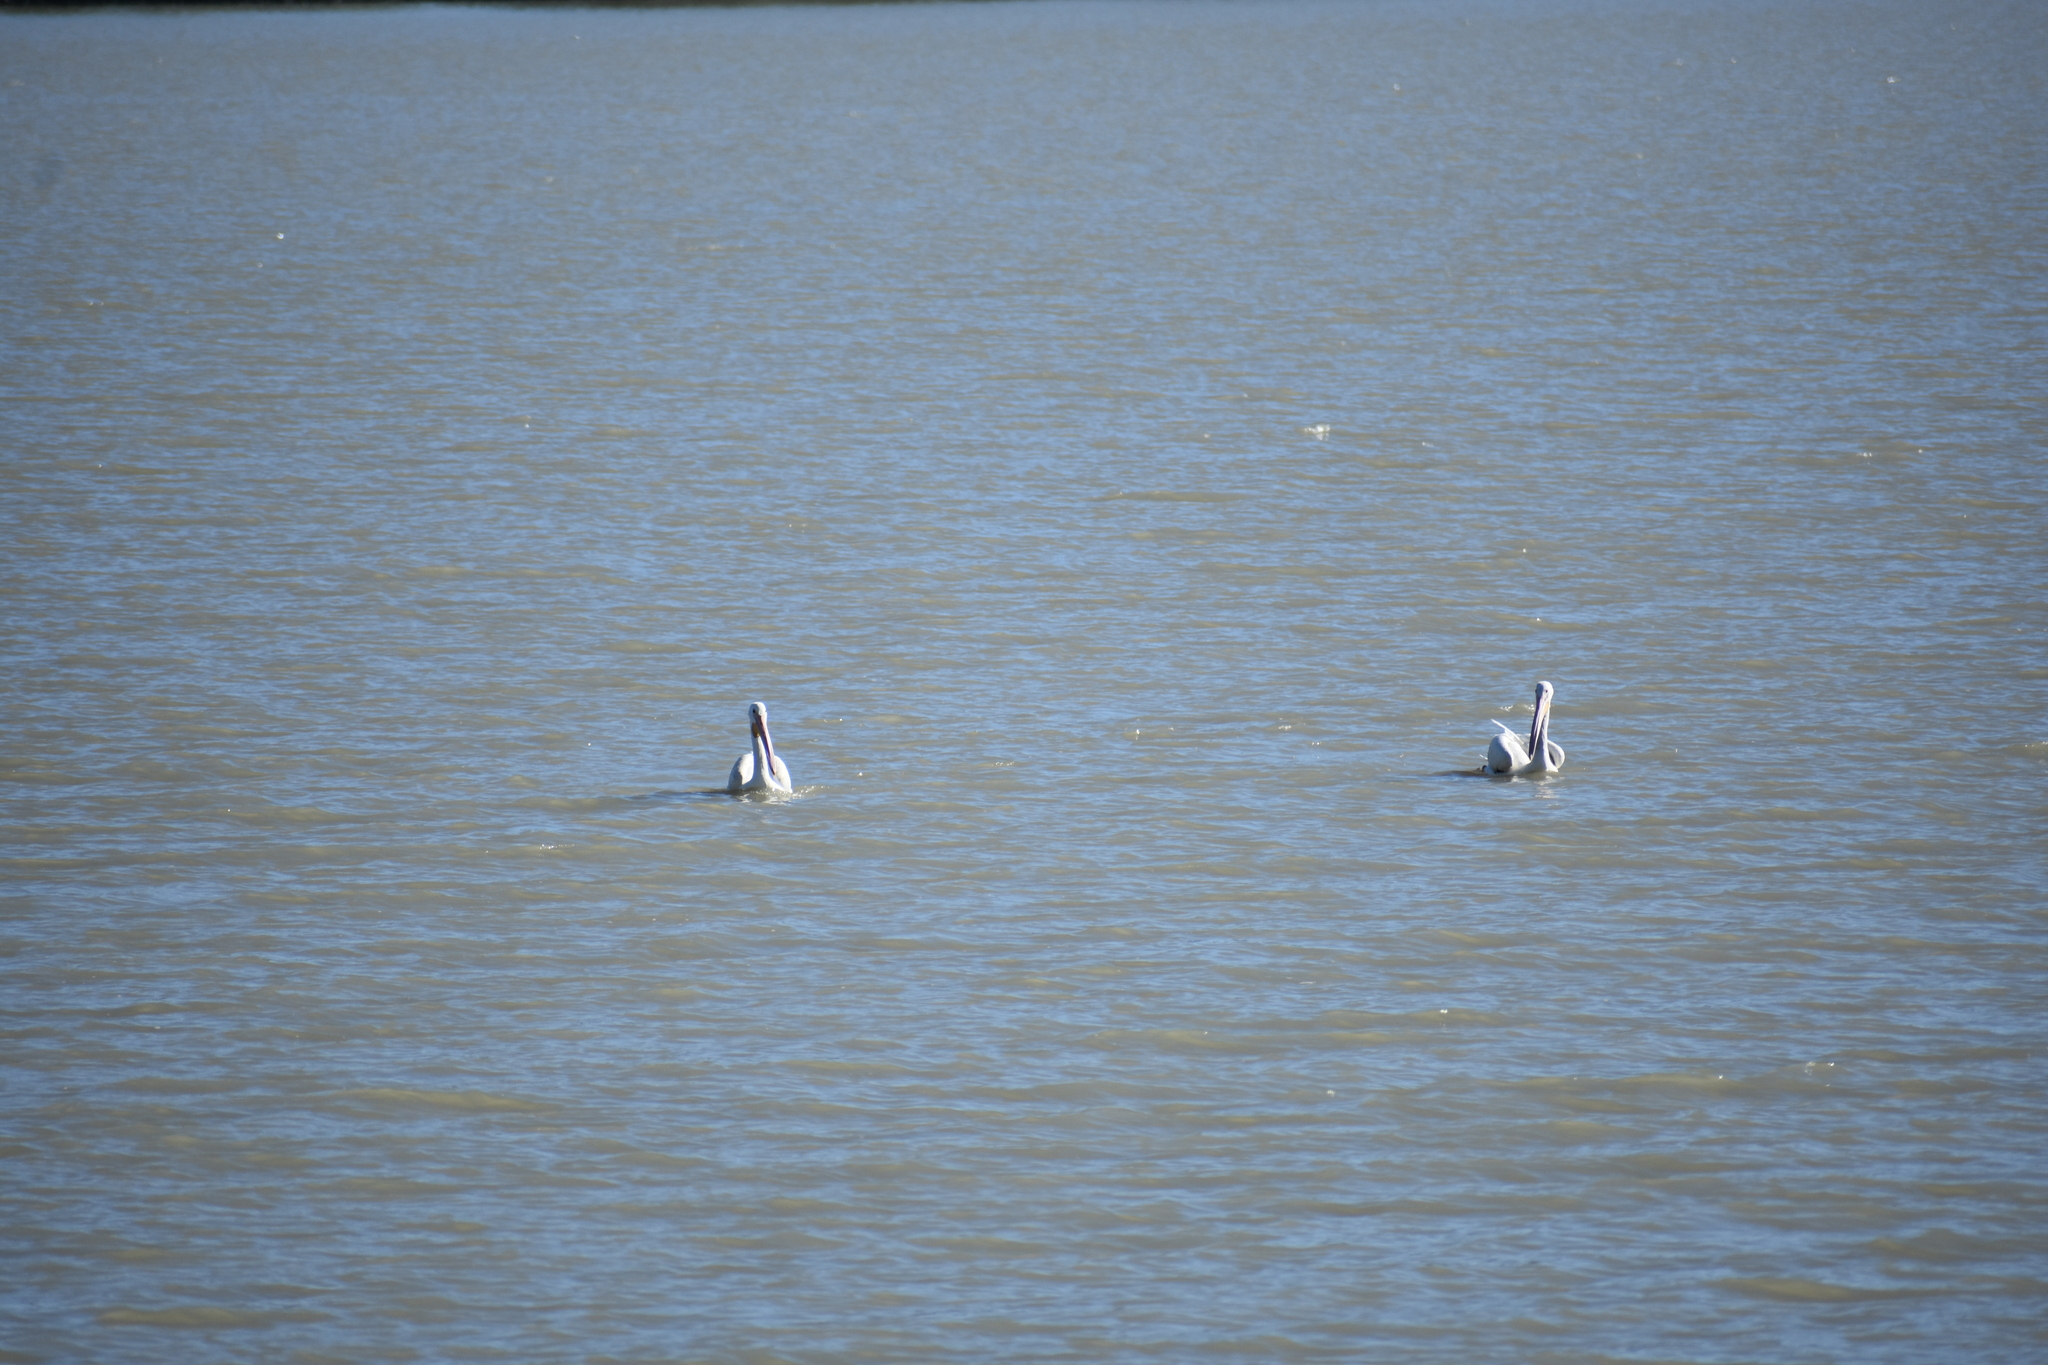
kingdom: Animalia
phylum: Chordata
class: Aves
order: Pelecaniformes
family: Pelecanidae
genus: Pelecanus
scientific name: Pelecanus erythrorhynchos
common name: American white pelican
